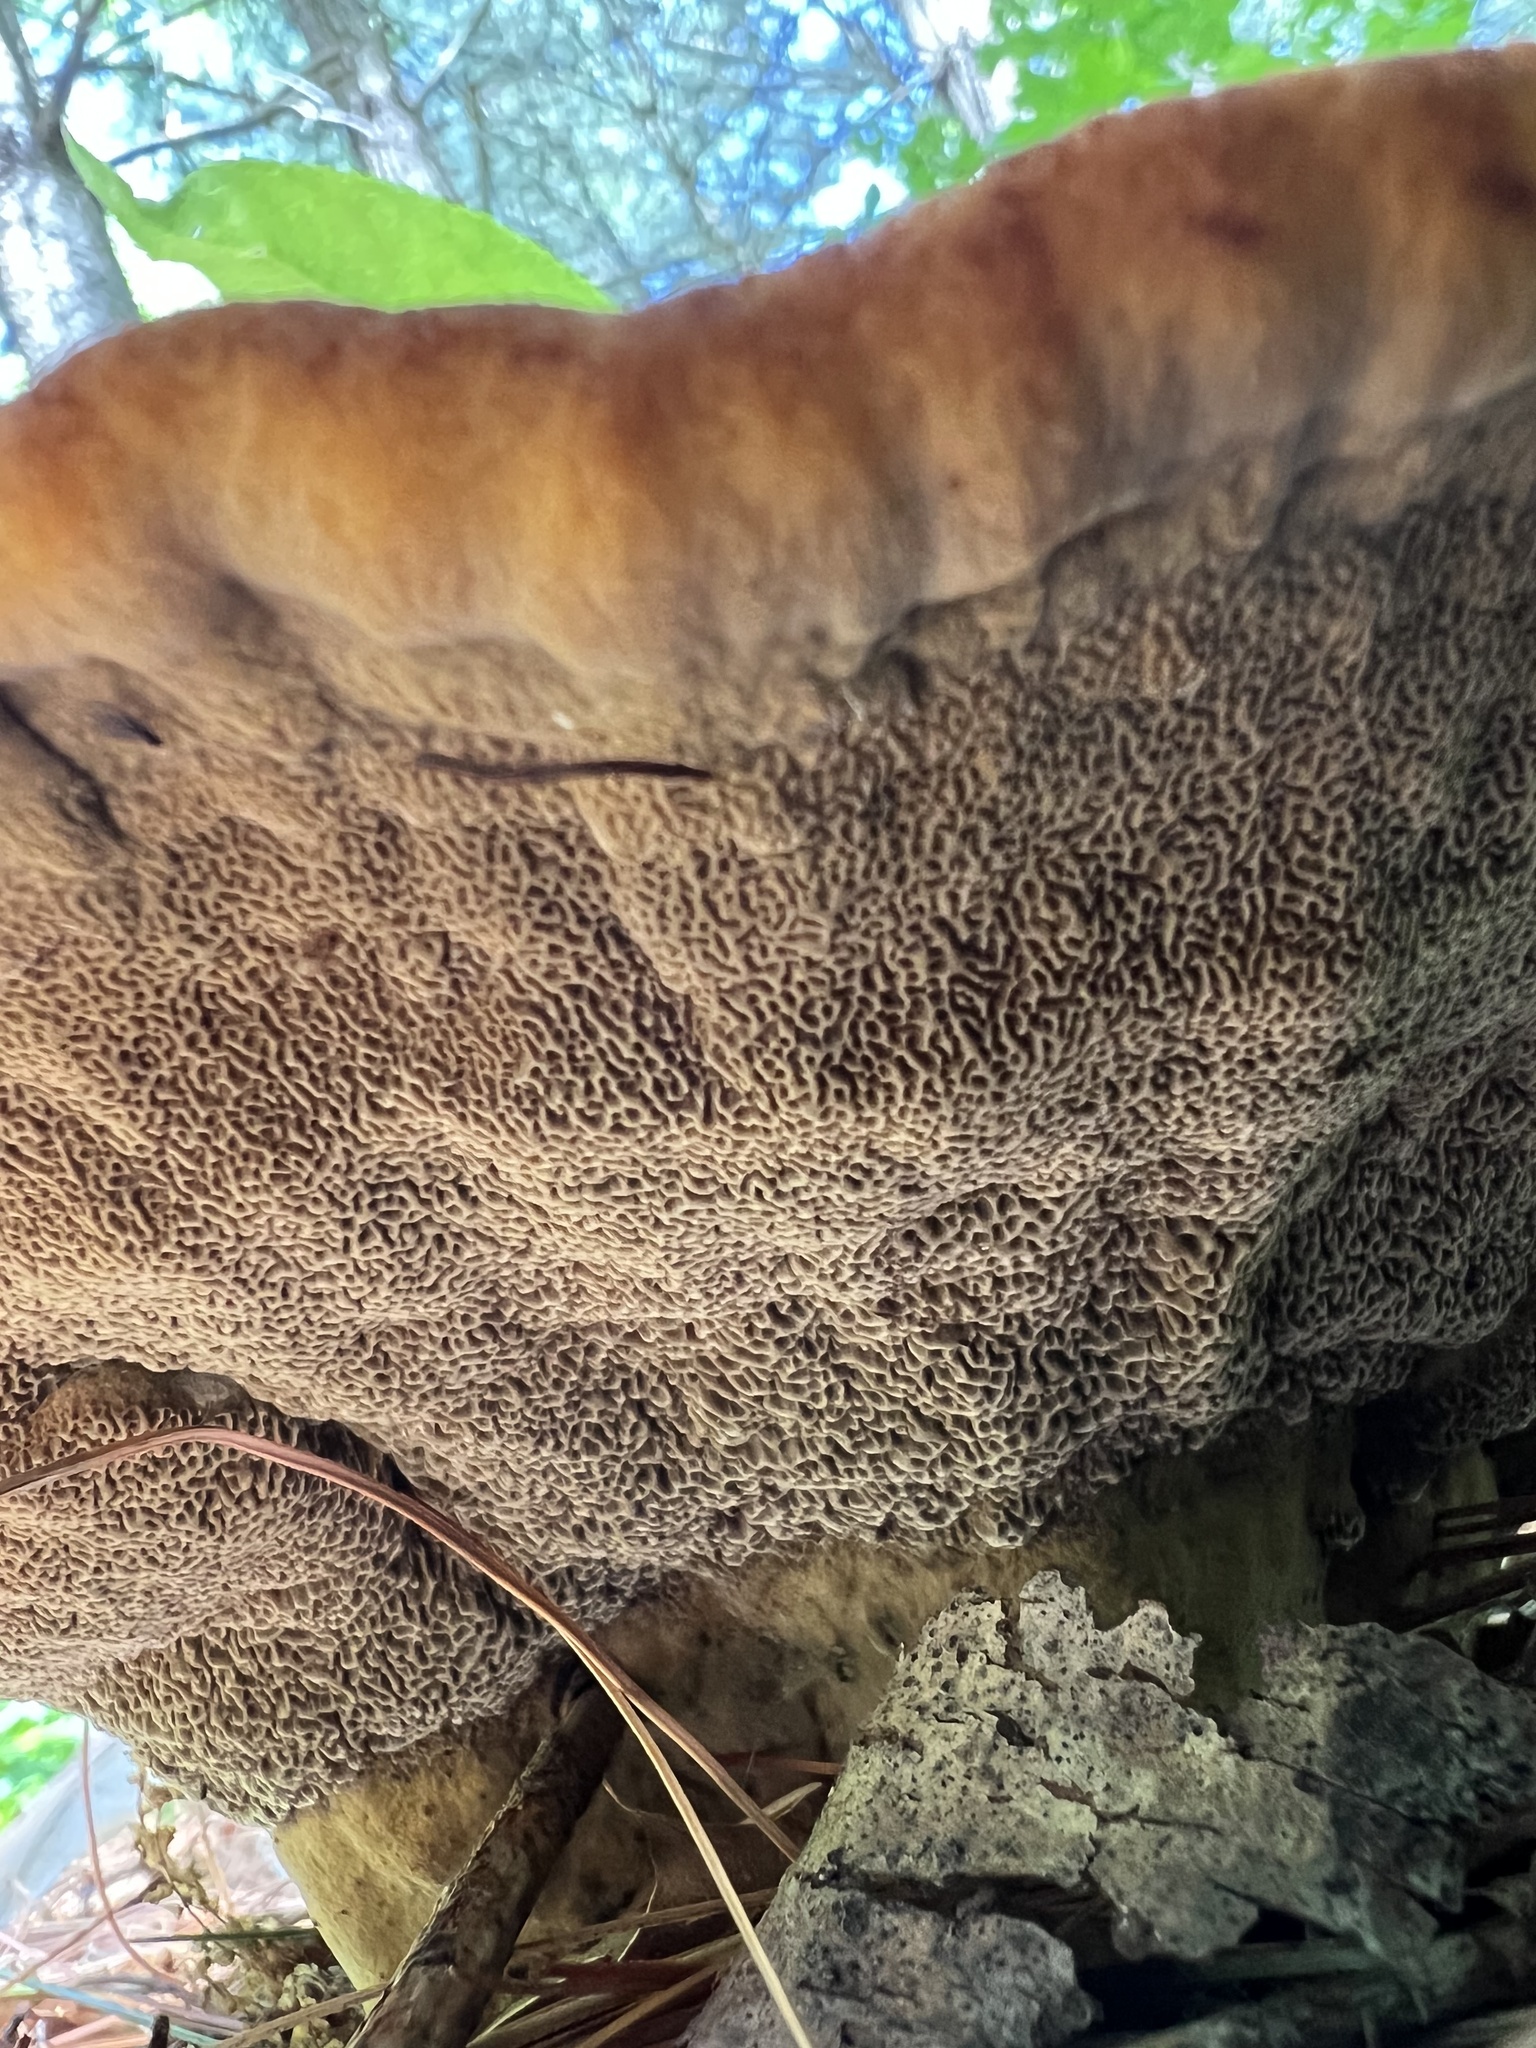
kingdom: Fungi
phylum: Basidiomycota
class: Agaricomycetes
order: Polyporales
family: Laetiporaceae
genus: Phaeolus
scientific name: Phaeolus schweinitzii
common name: Dyer's mazegill
